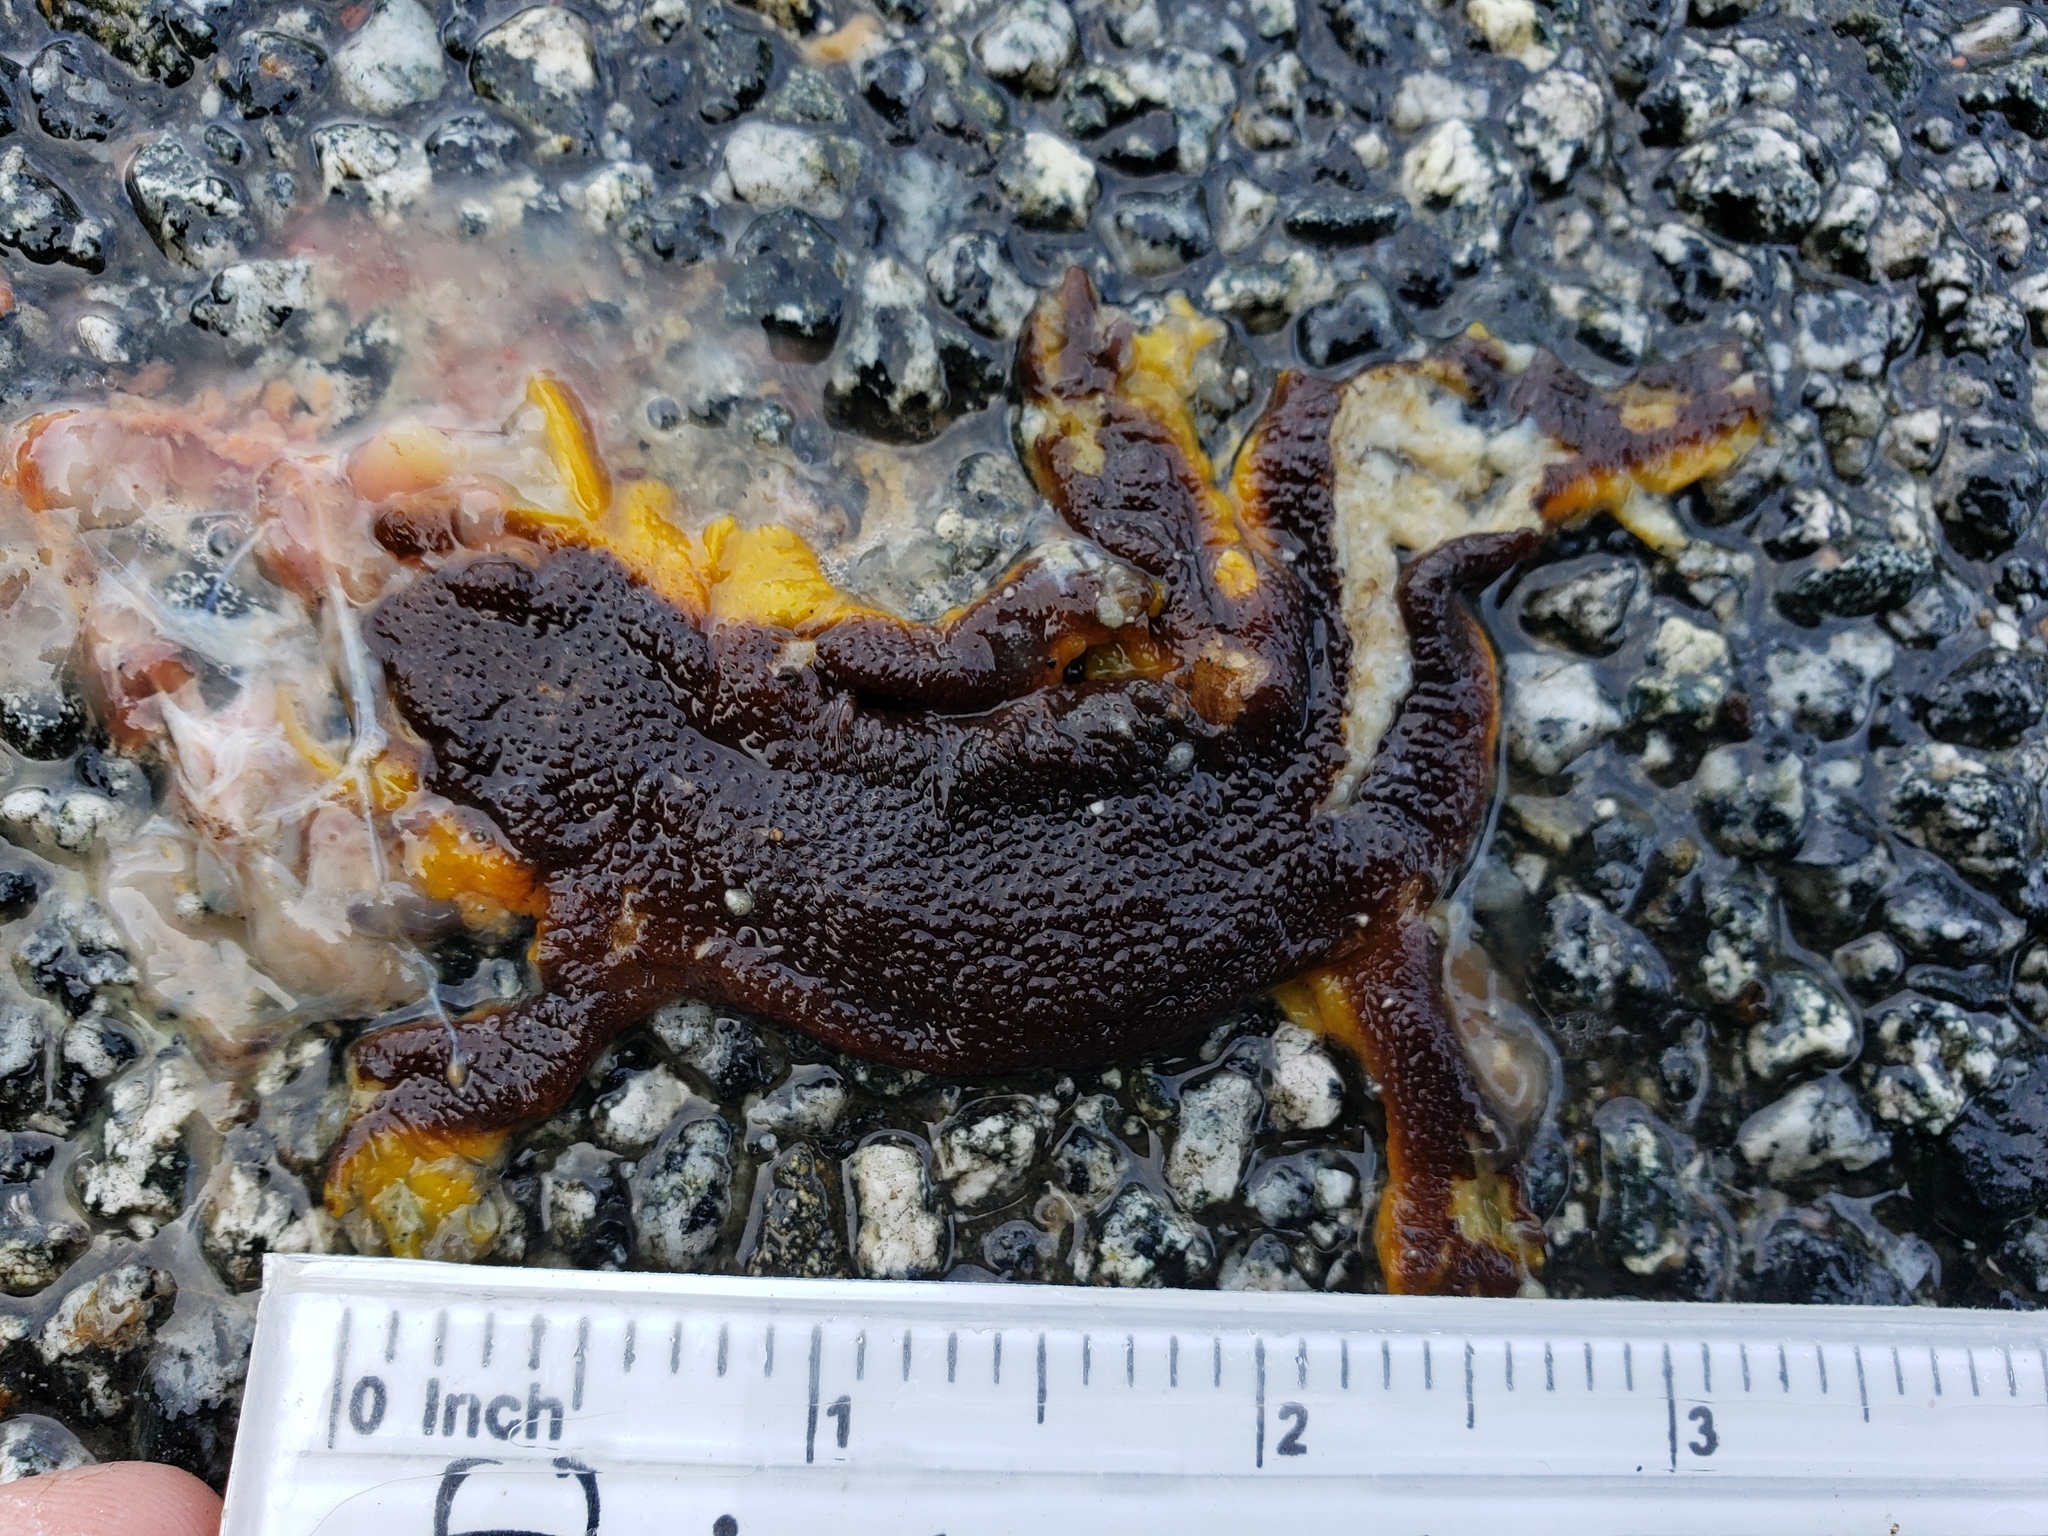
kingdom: Animalia
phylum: Chordata
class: Amphibia
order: Caudata
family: Salamandridae
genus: Taricha
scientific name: Taricha
